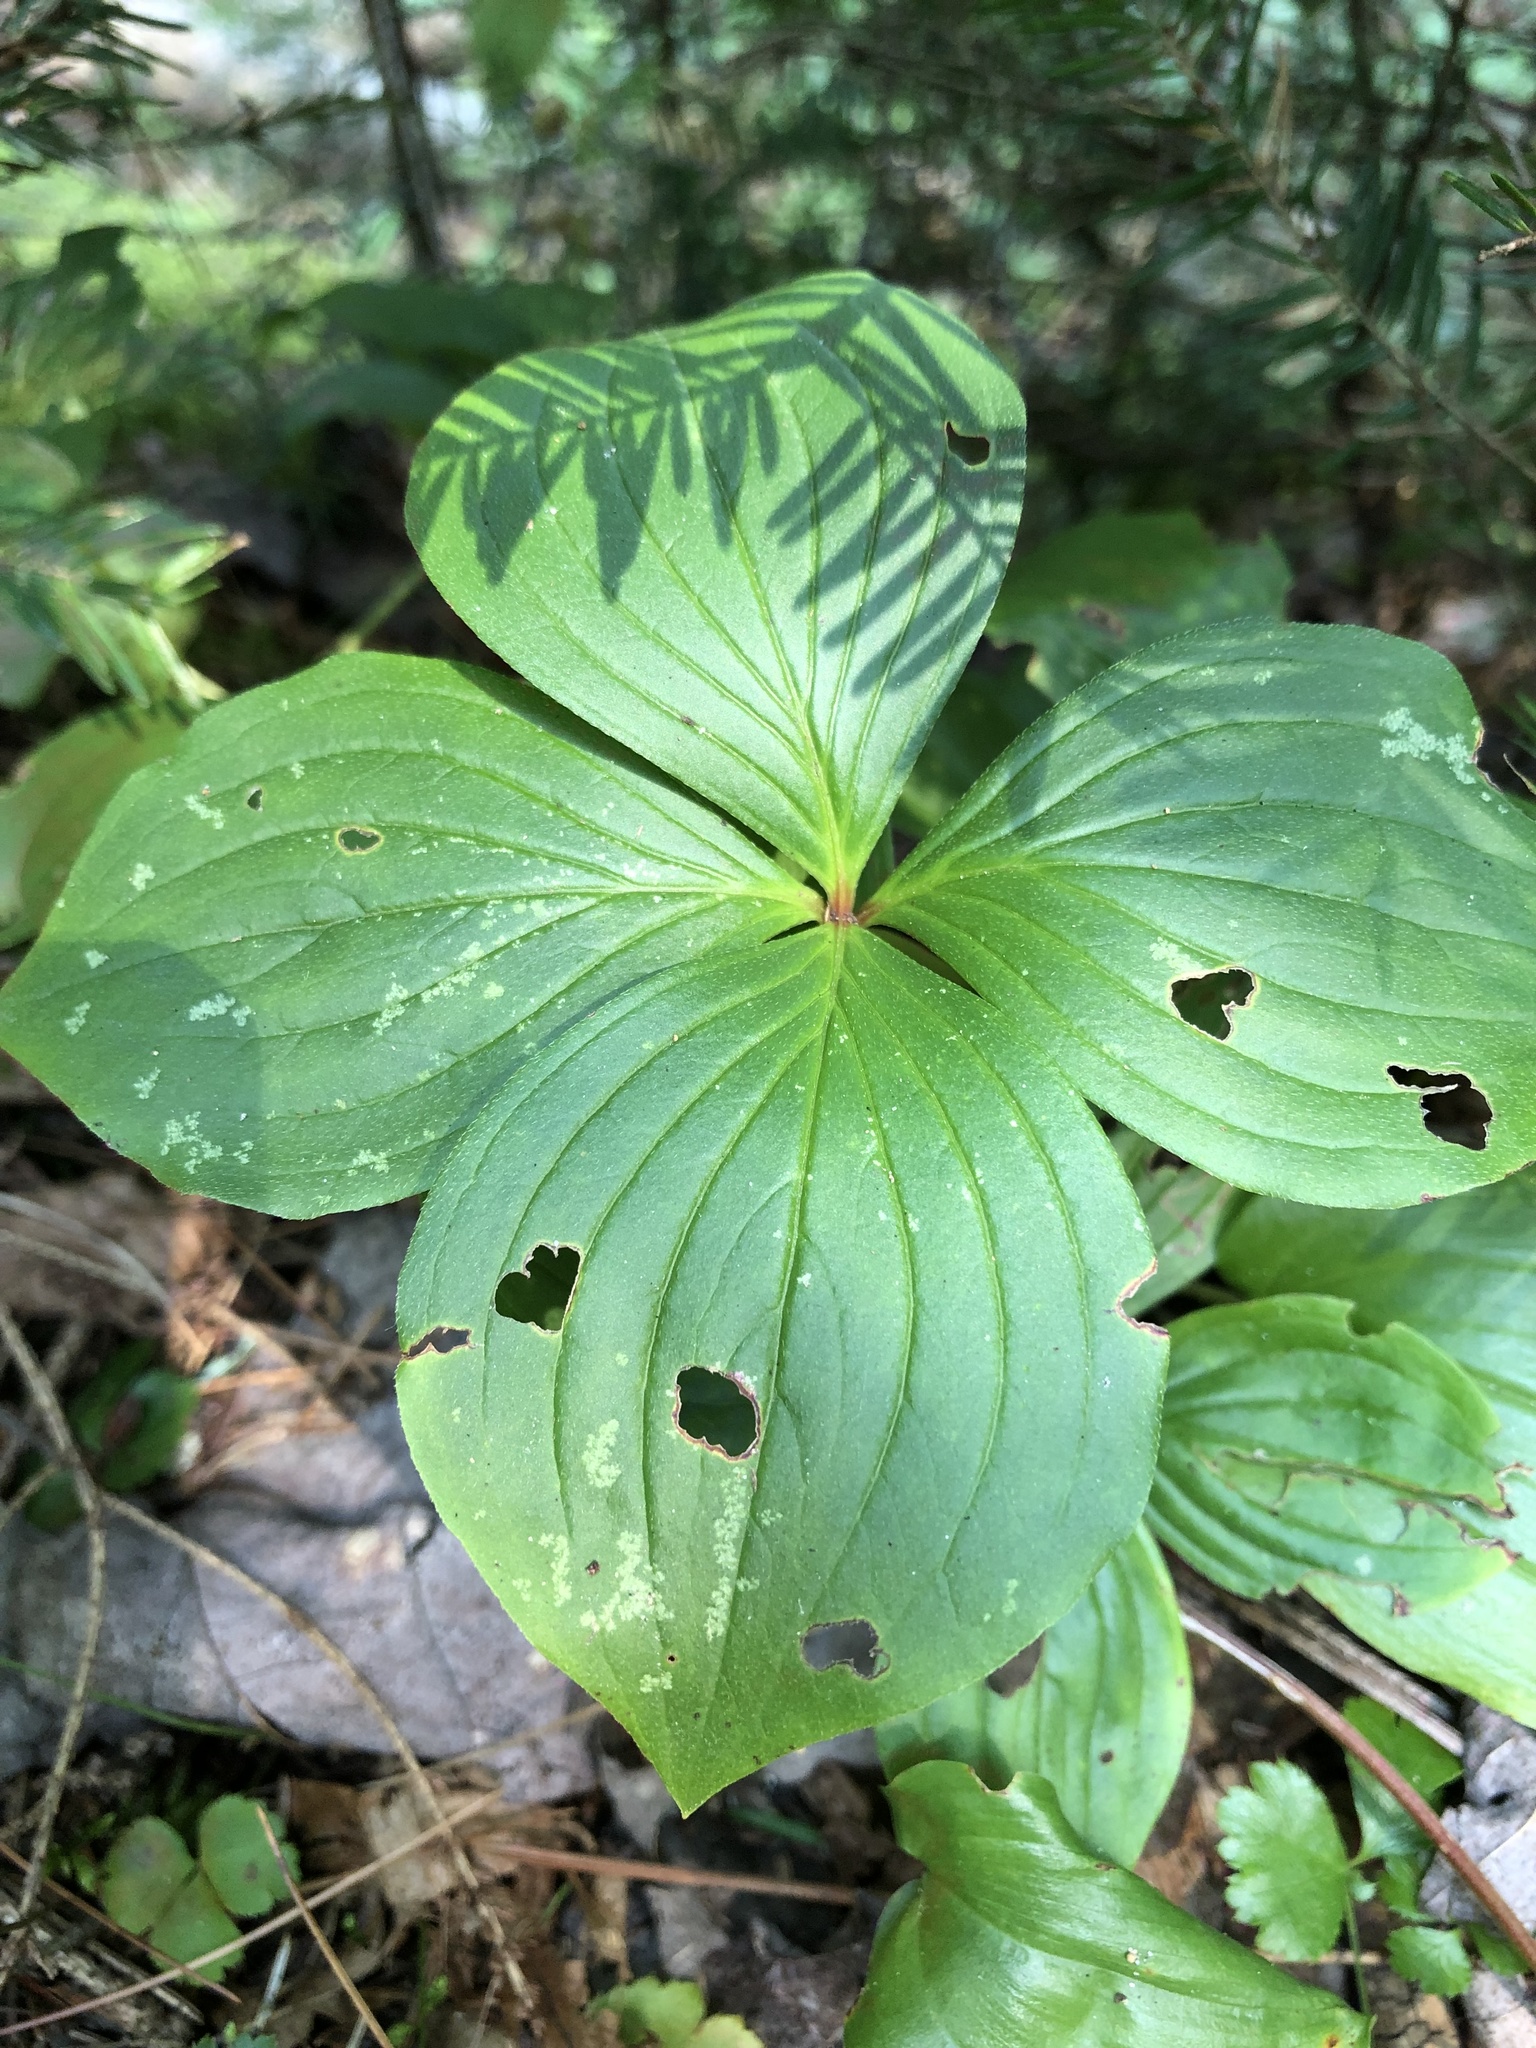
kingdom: Plantae
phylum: Tracheophyta
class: Magnoliopsida
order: Cornales
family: Cornaceae
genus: Cornus
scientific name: Cornus canadensis
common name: Creeping dogwood
